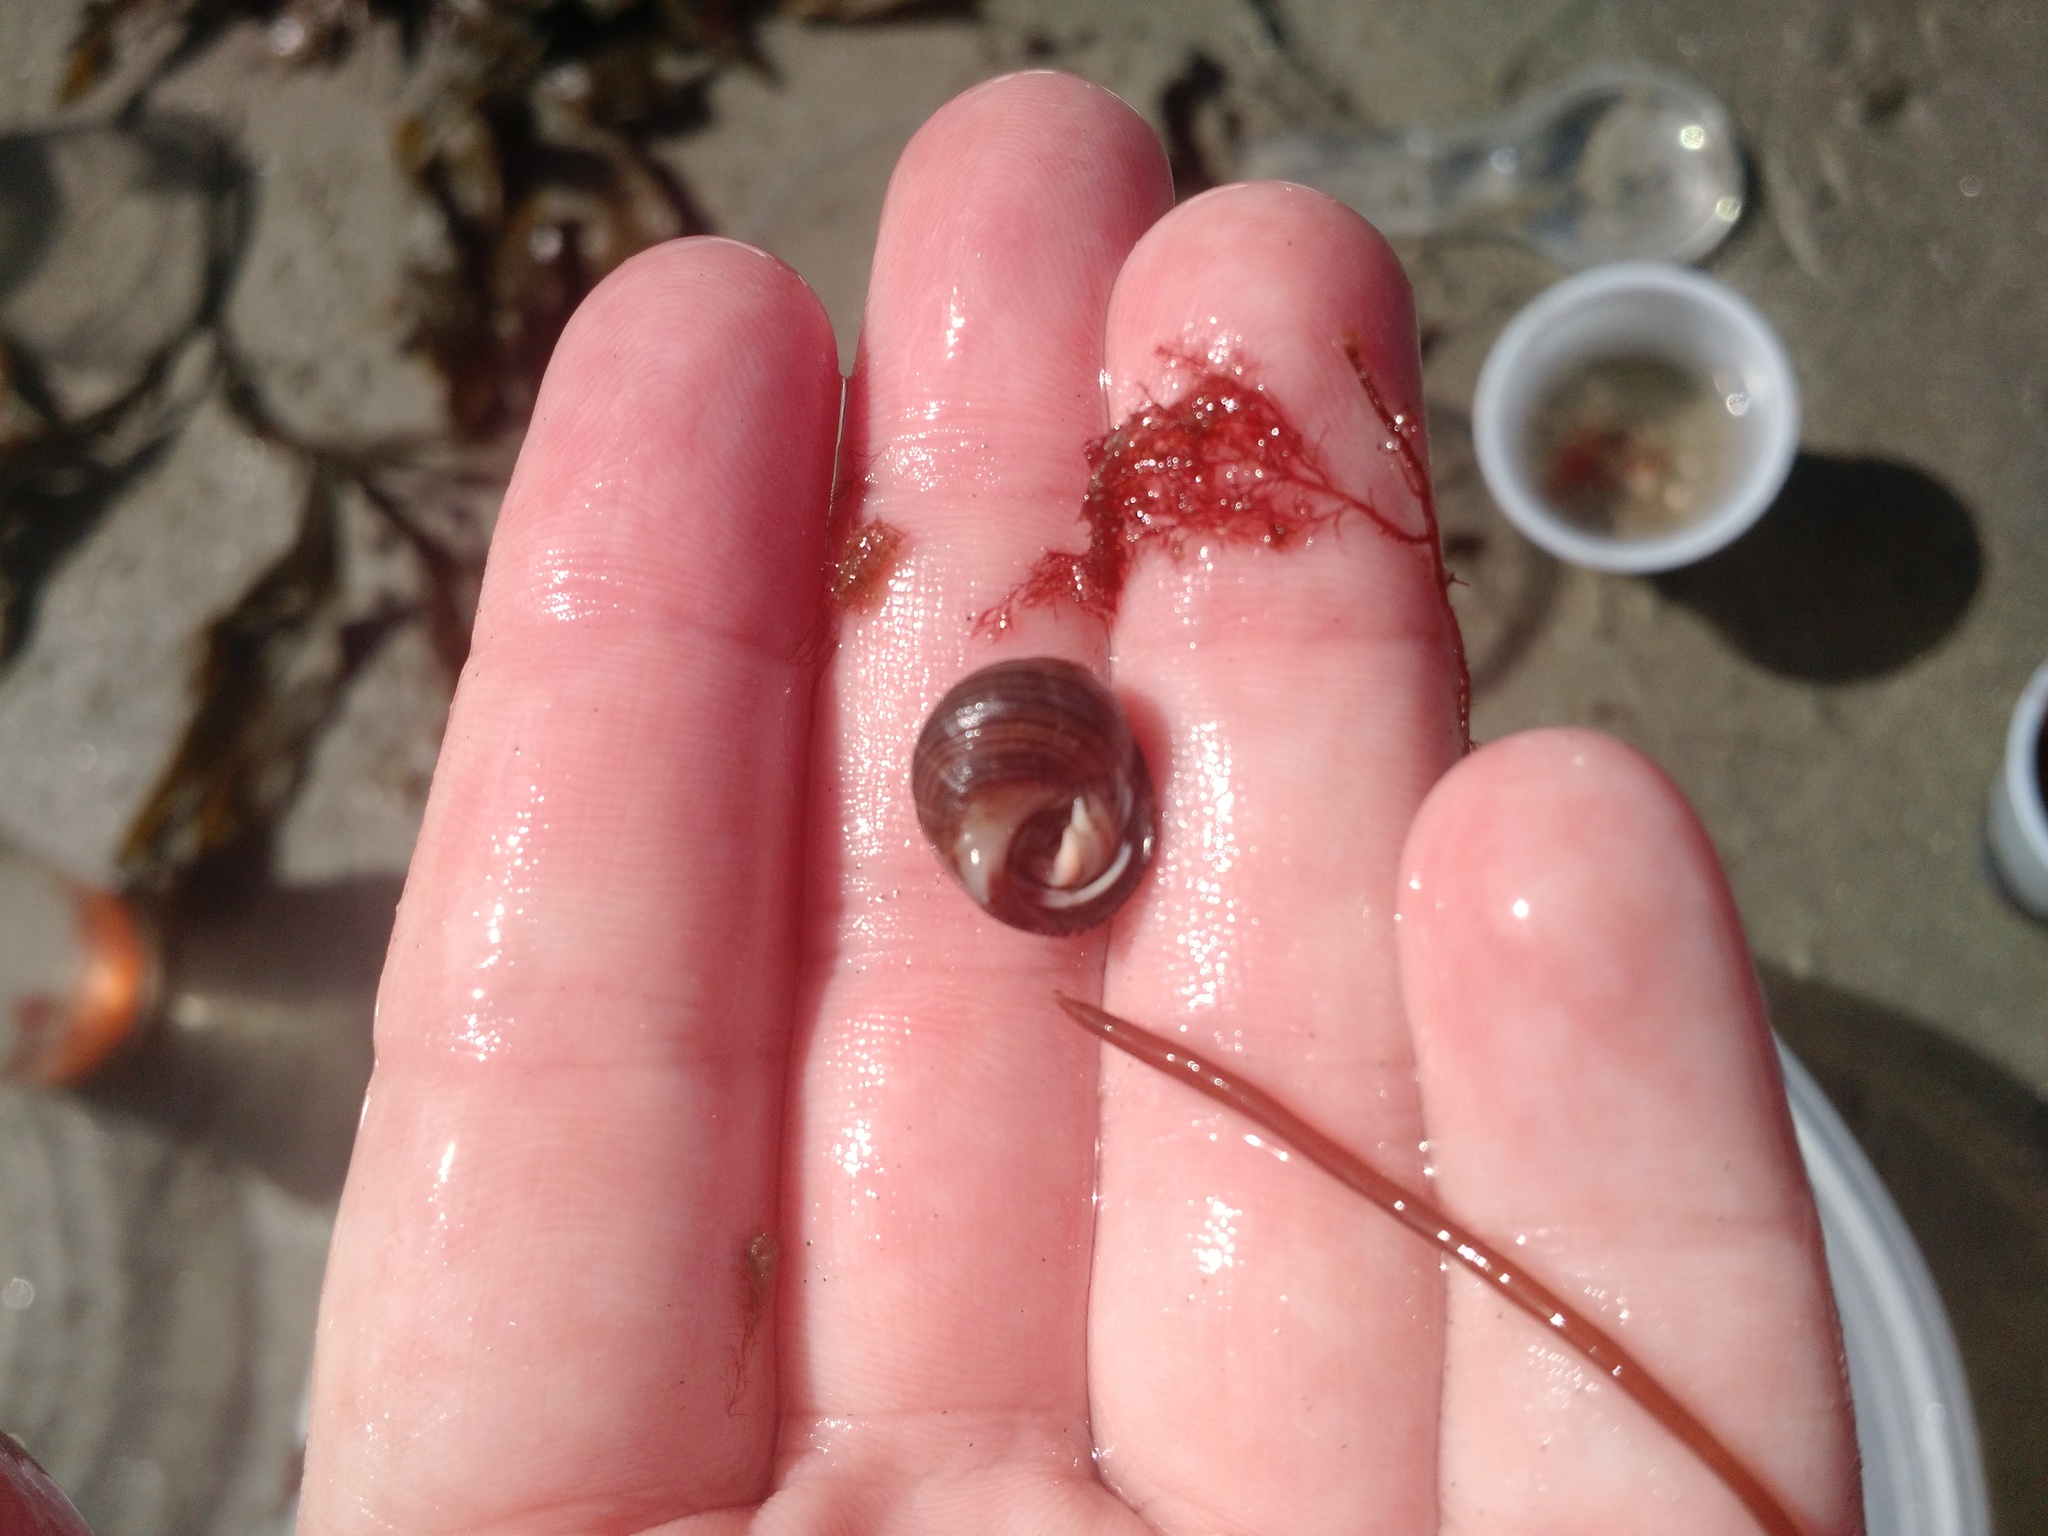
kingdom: Animalia
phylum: Arthropoda
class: Malacostraca
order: Decapoda
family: Paguridae
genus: Pagurus
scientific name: Pagurus longicarpus
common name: Long-armed hermit crab
